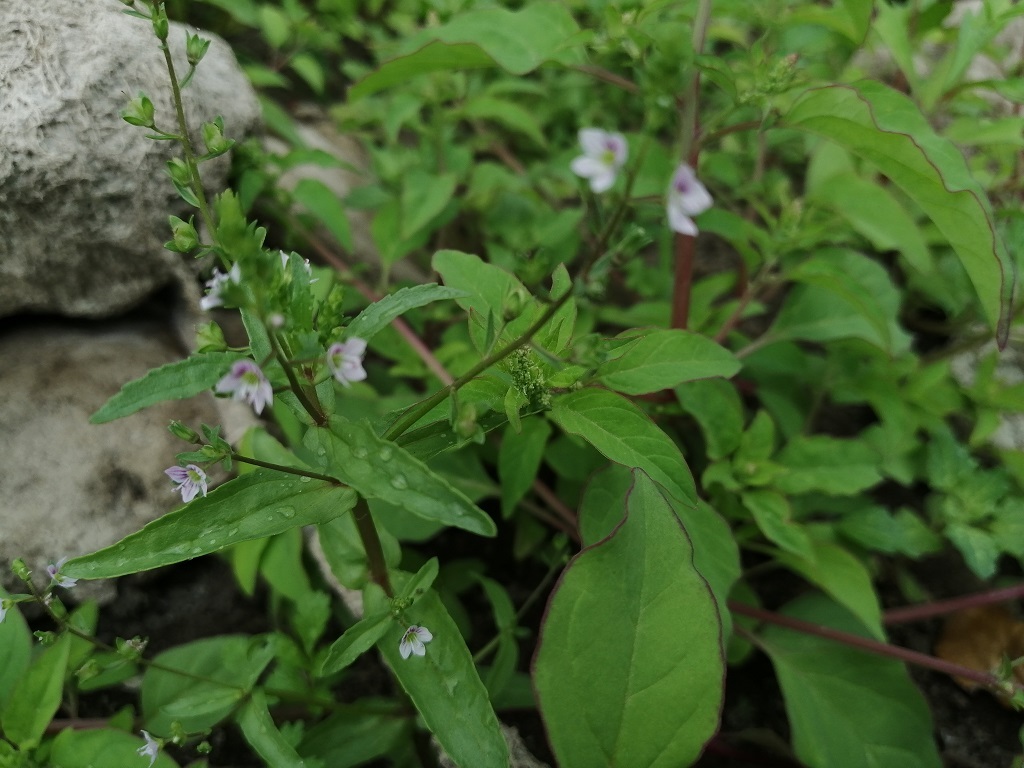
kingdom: Plantae
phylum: Tracheophyta
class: Magnoliopsida
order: Lamiales
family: Plantaginaceae
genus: Veronica
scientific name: Veronica catenata
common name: Pink water-speedwell
